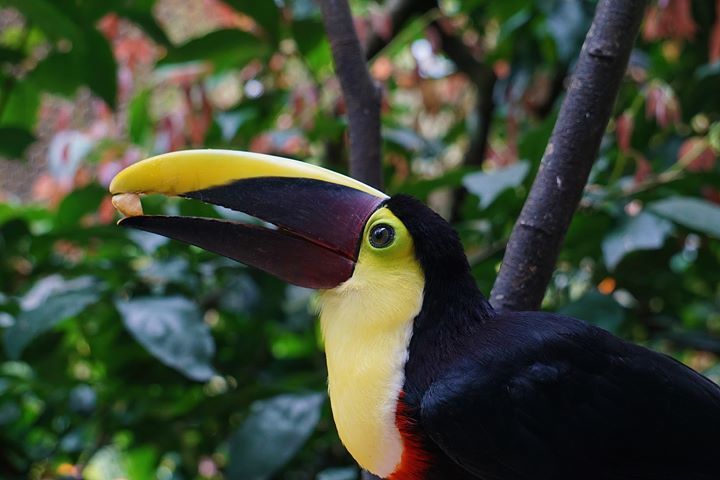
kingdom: Animalia
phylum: Chordata
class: Aves
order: Piciformes
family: Ramphastidae
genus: Ramphastos
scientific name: Ramphastos ambiguus
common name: Yellow-throated toucan
